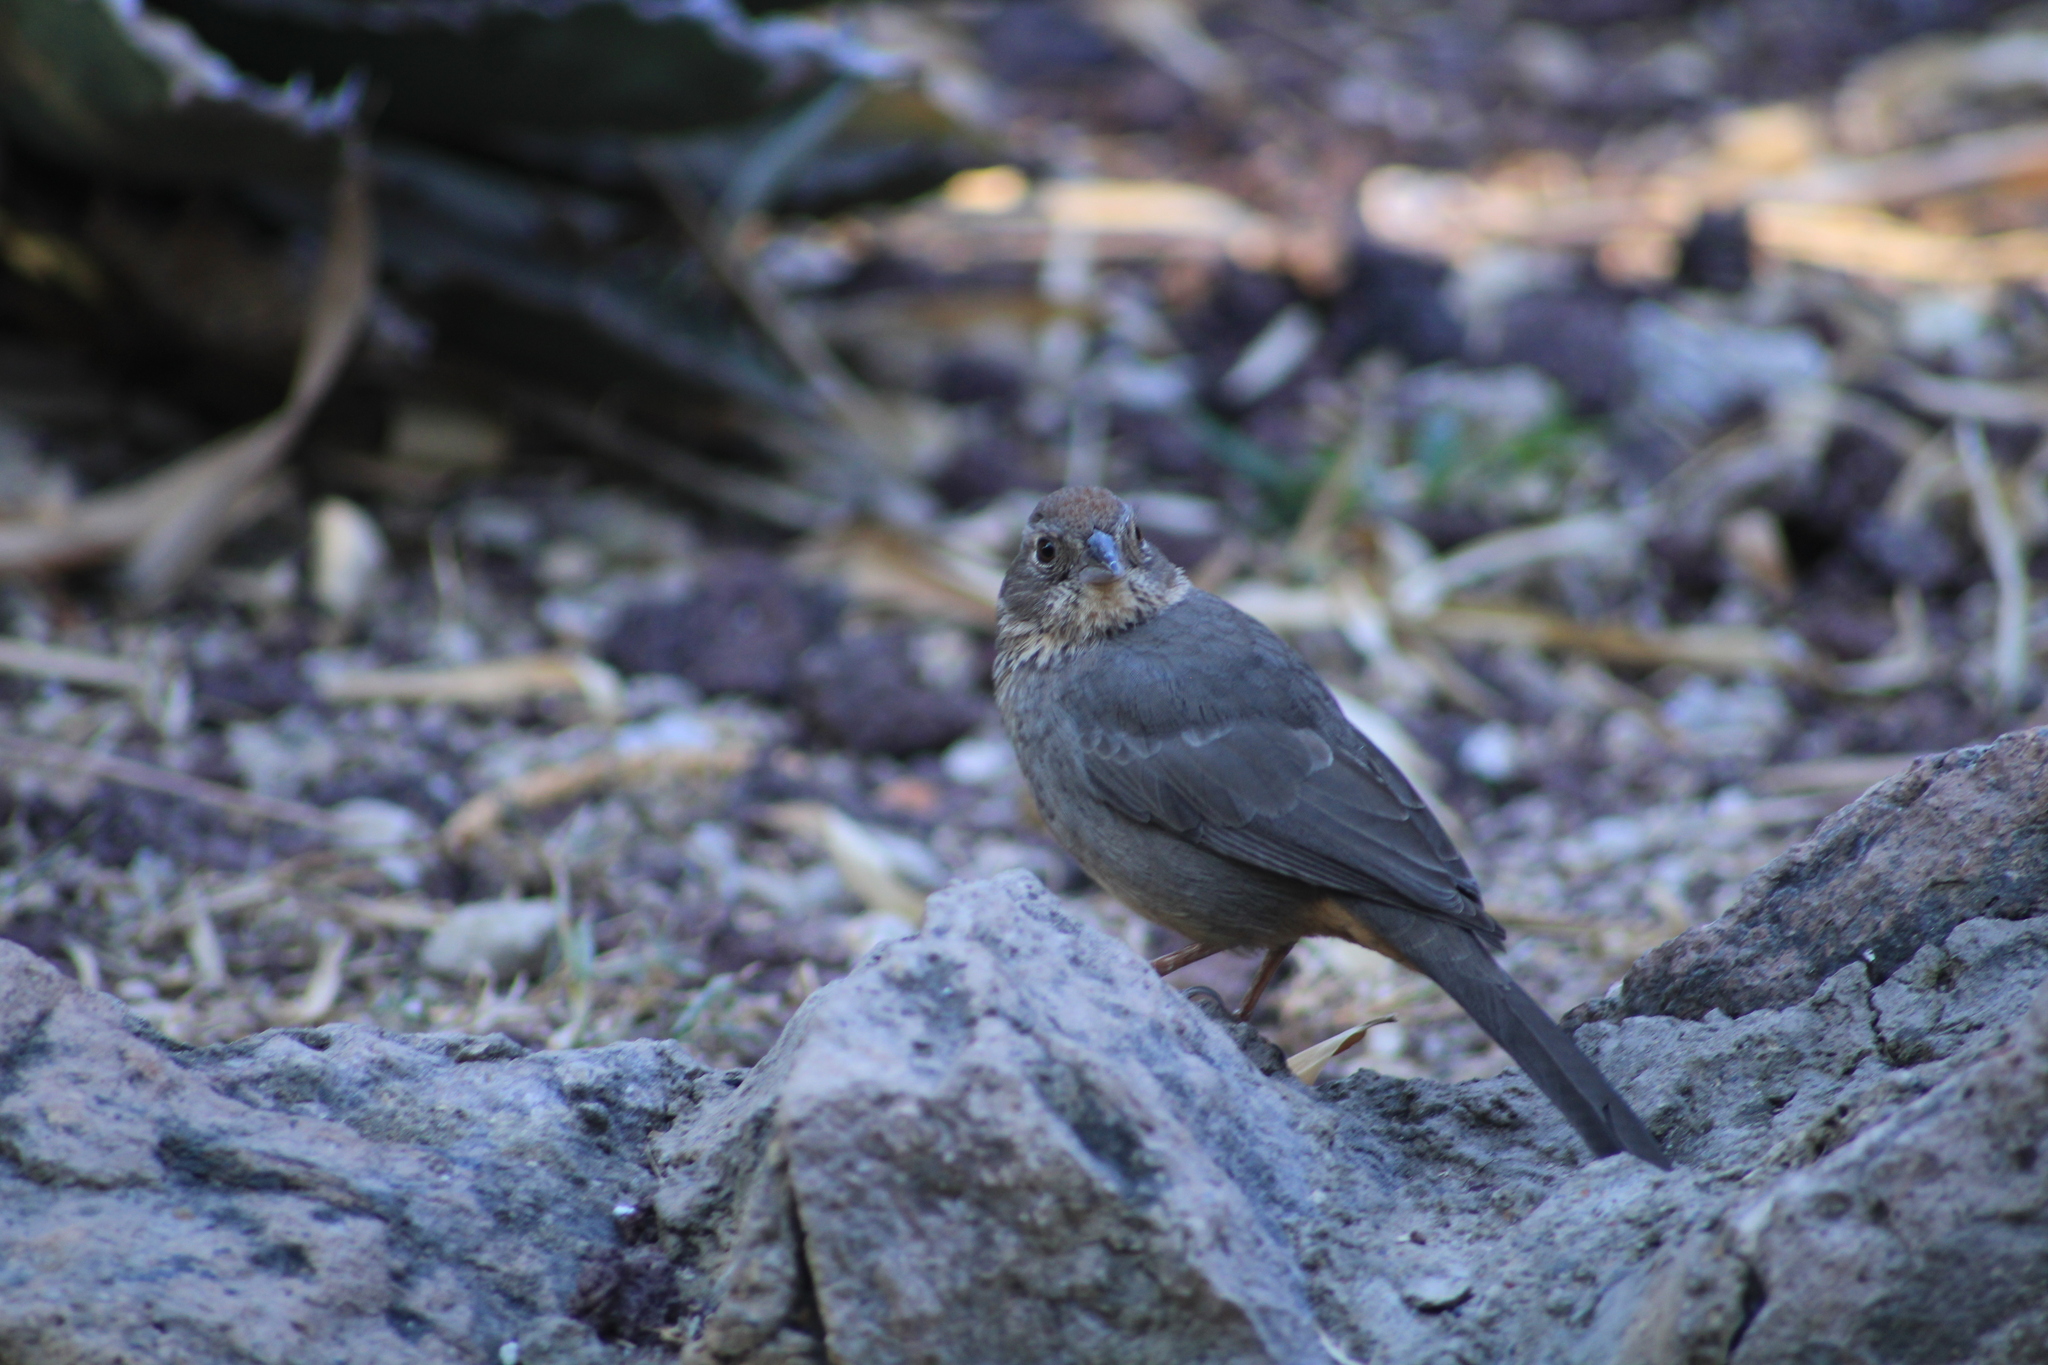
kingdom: Animalia
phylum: Chordata
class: Aves
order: Passeriformes
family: Passerellidae
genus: Melozone
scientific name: Melozone fusca
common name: Canyon towhee
